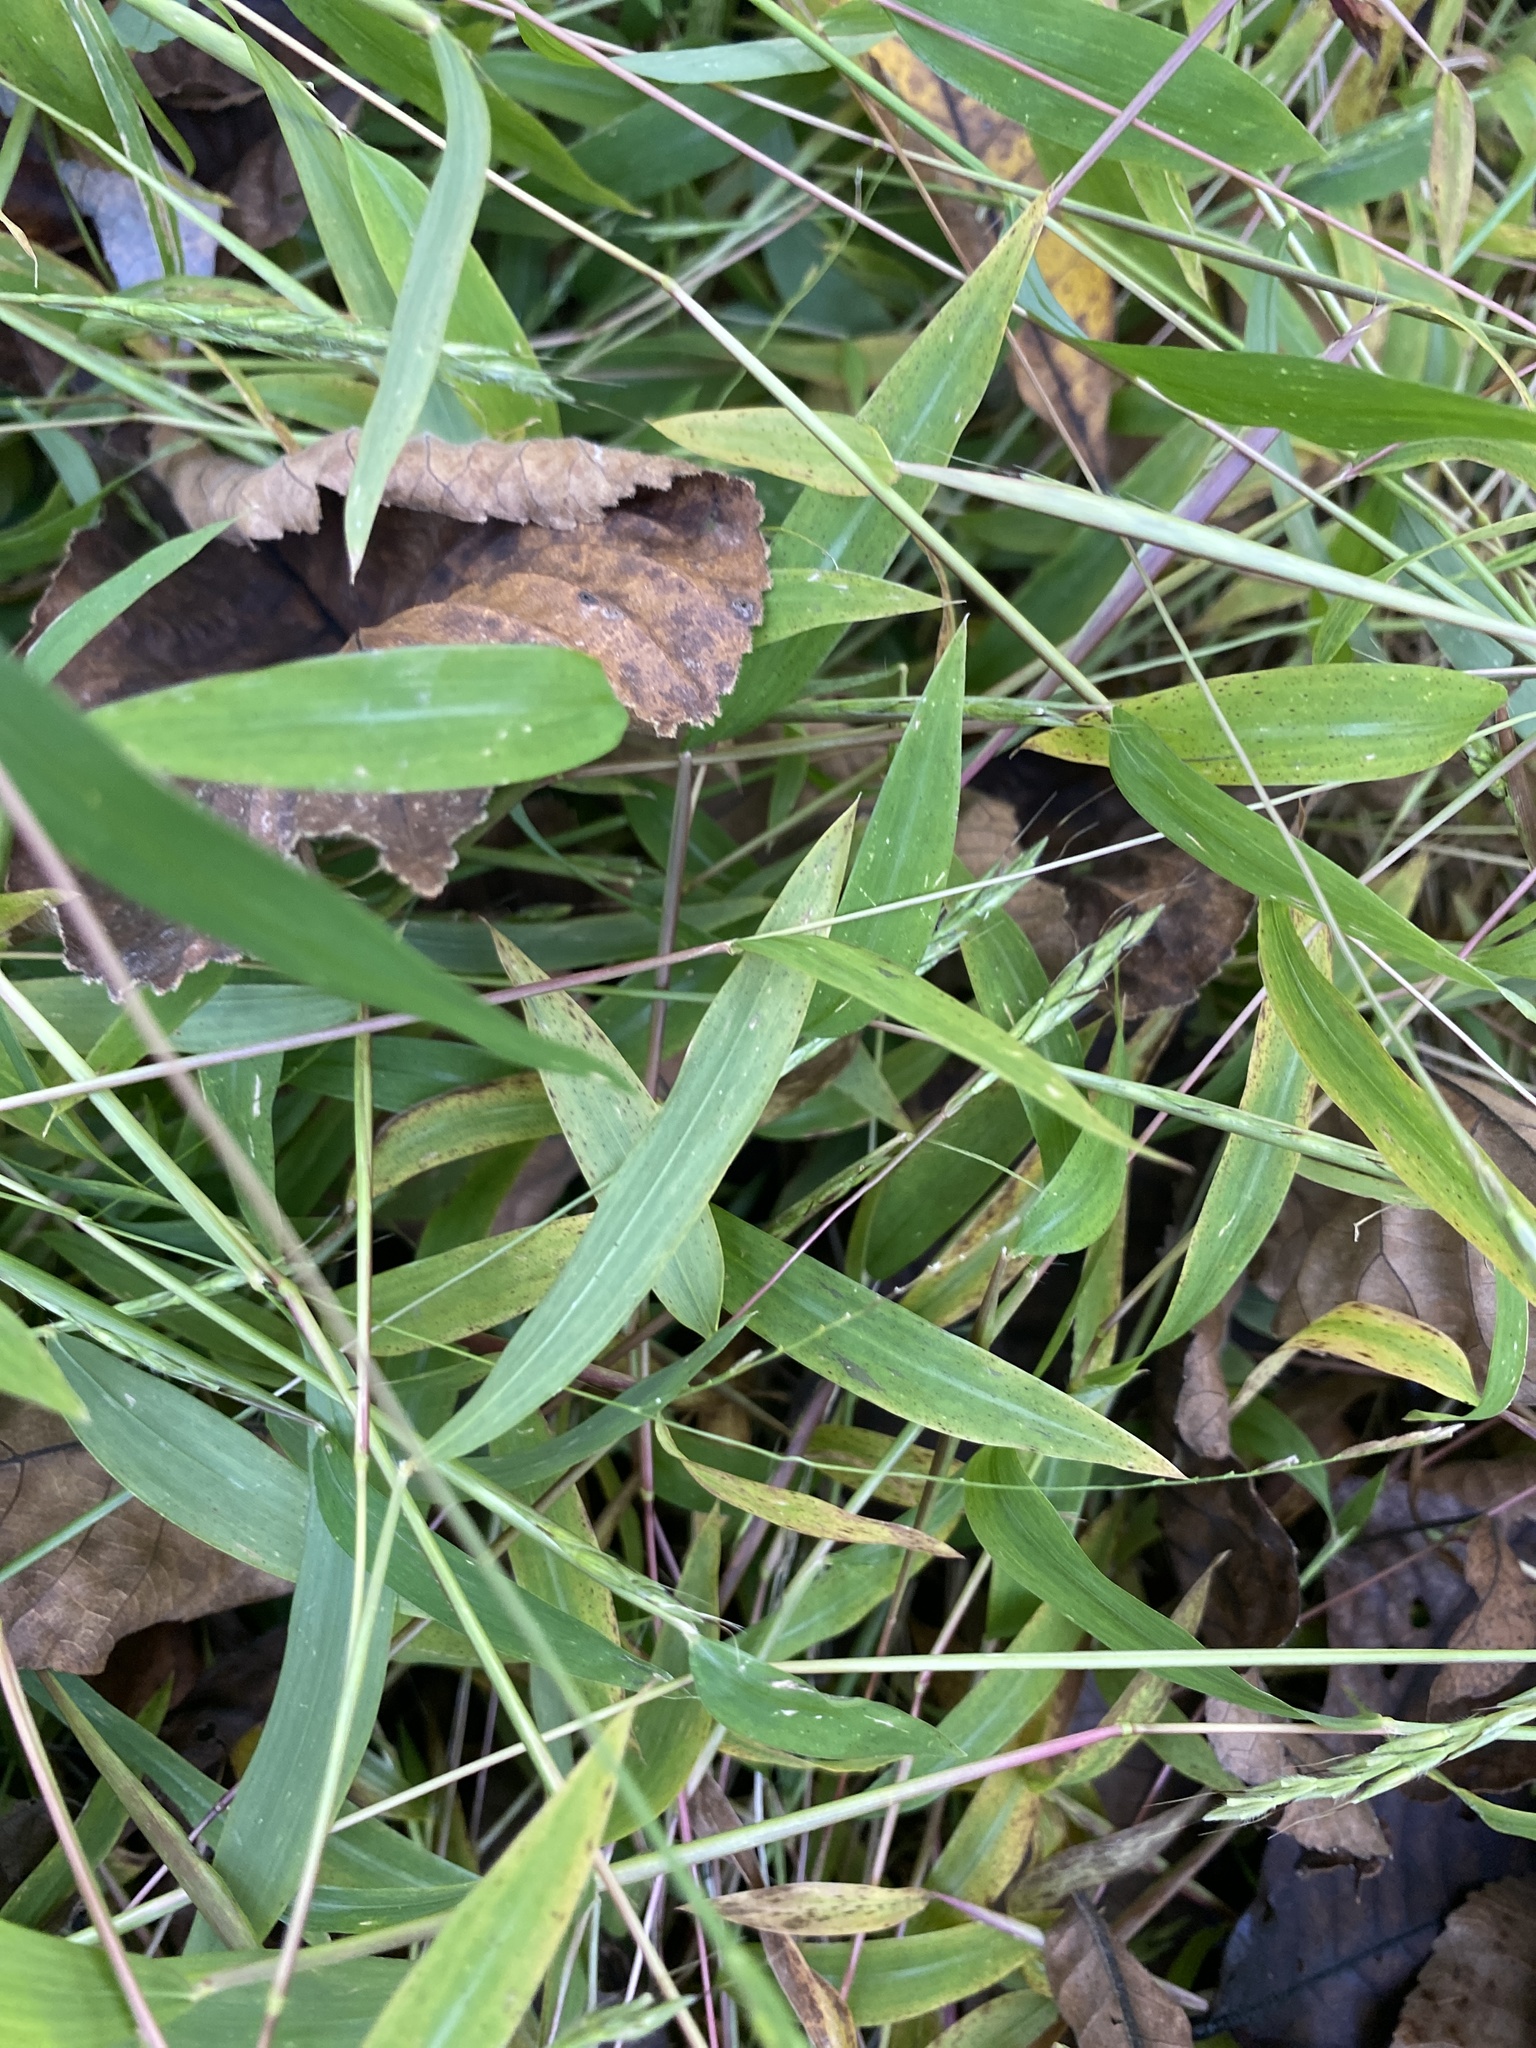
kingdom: Plantae
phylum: Tracheophyta
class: Liliopsida
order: Poales
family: Poaceae
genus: Microstegium
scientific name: Microstegium vimineum
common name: Japanese stiltgrass
